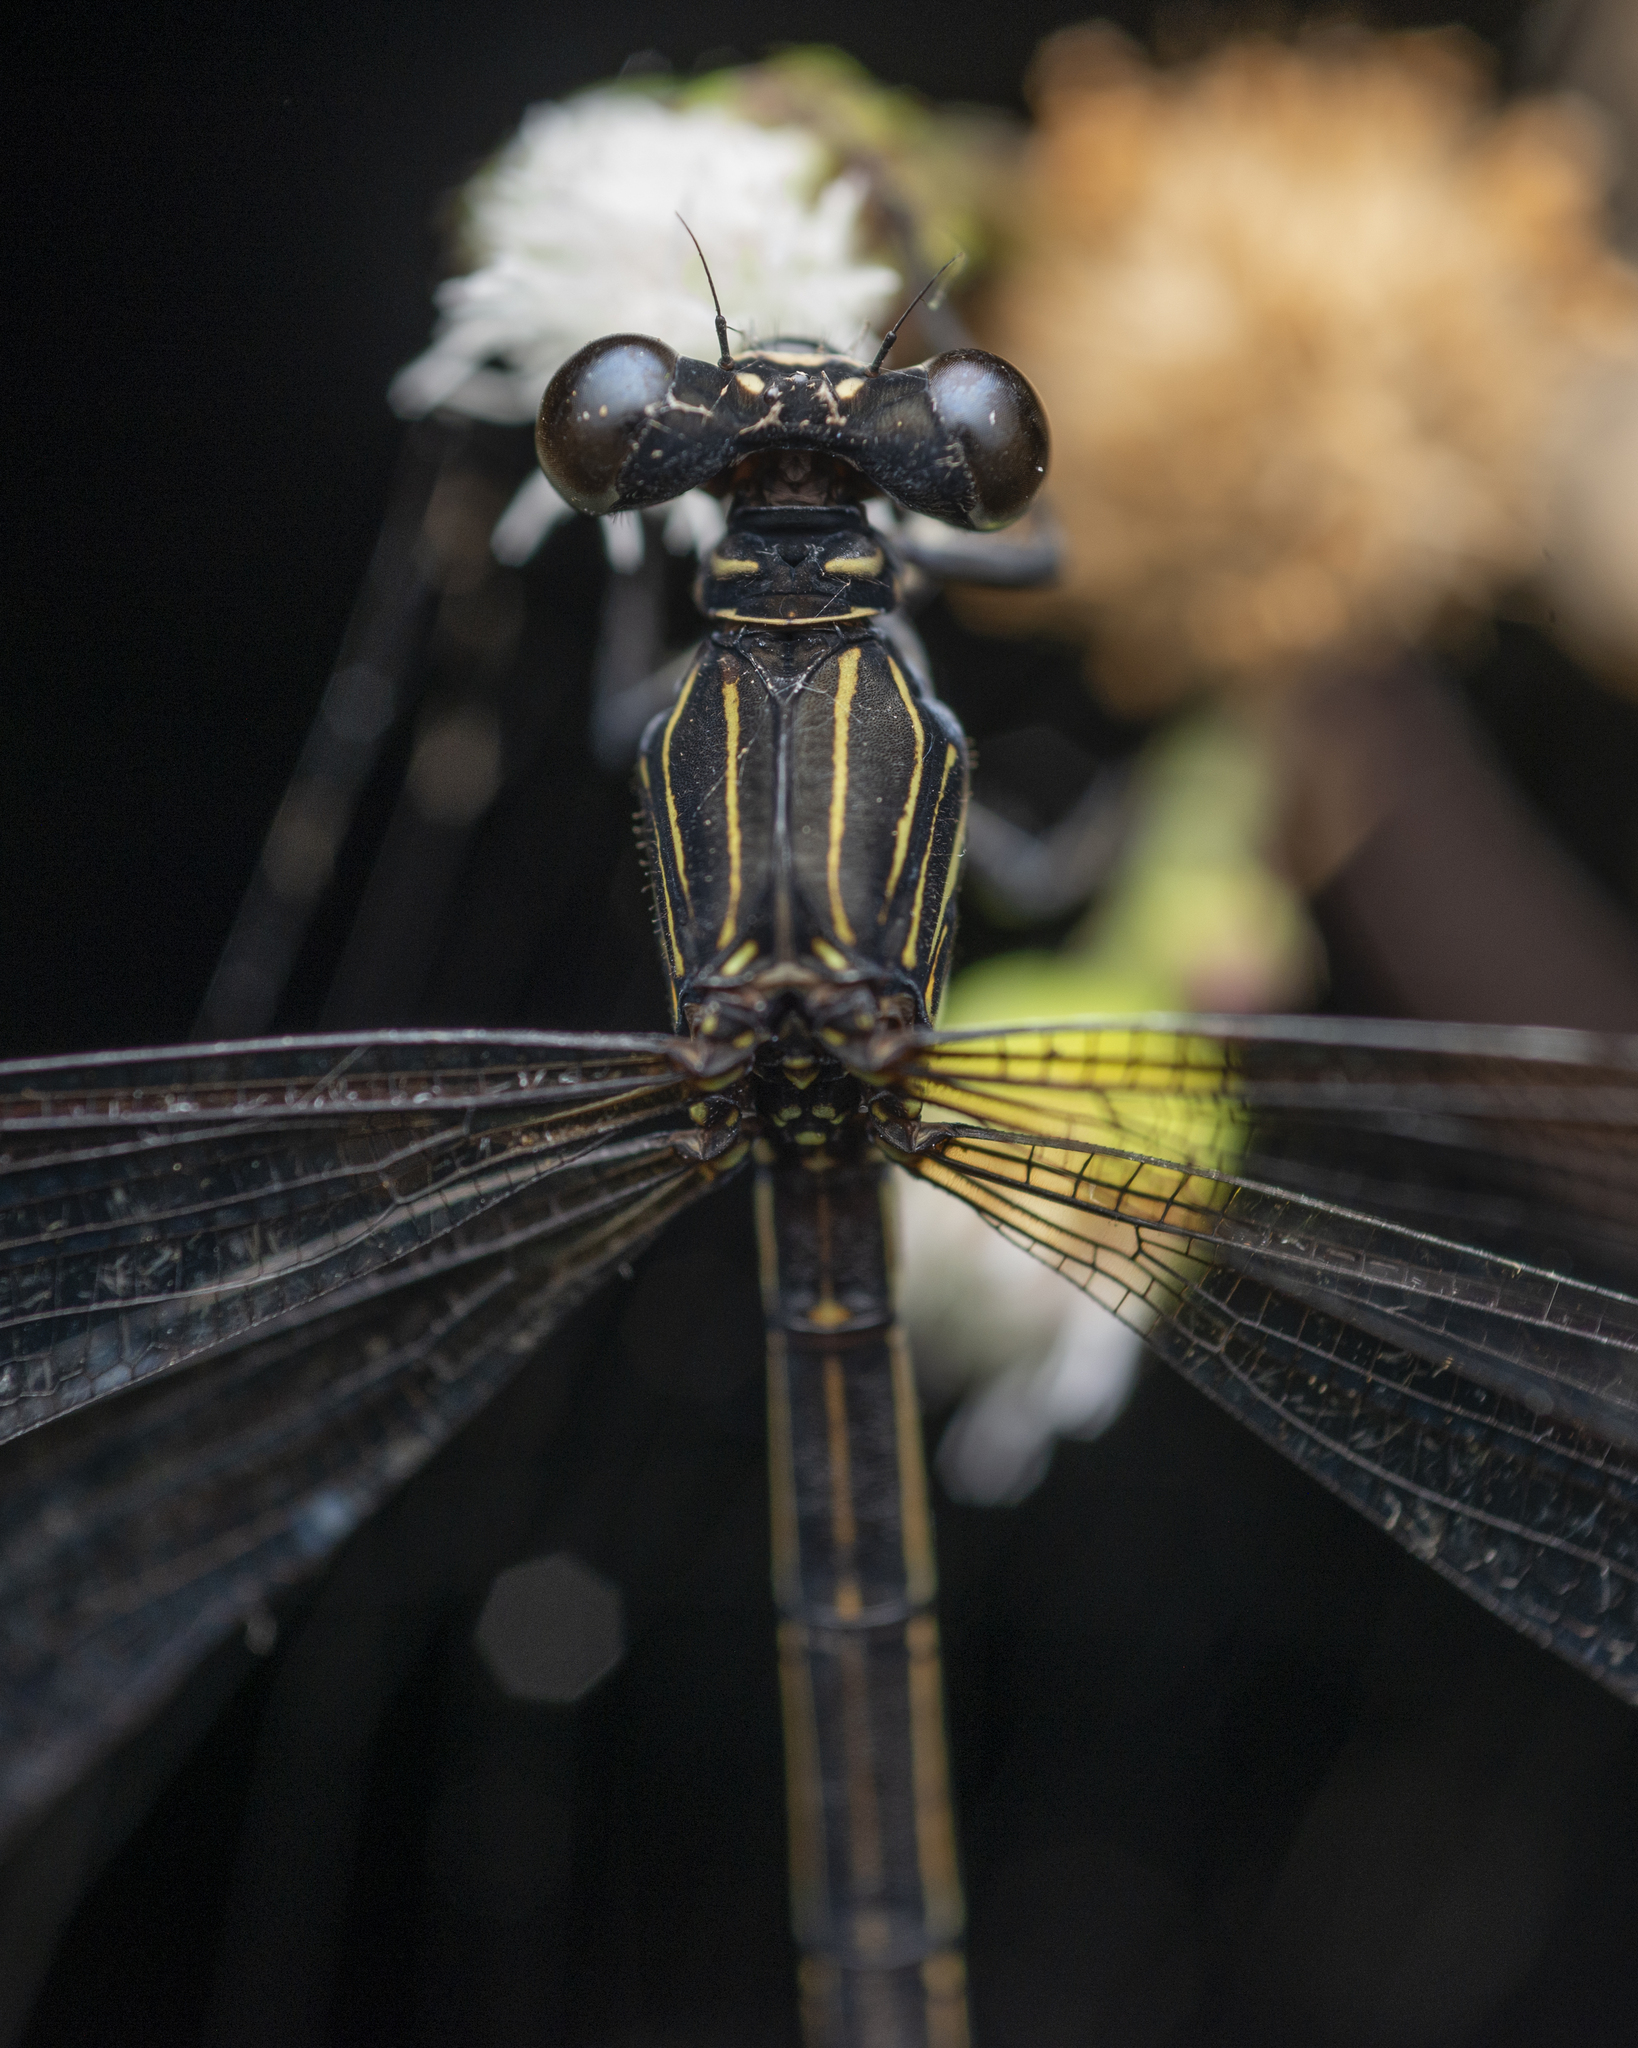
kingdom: Animalia
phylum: Arthropoda
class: Insecta
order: Odonata
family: Euphaeidae
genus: Euphaea
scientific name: Euphaea decorata
